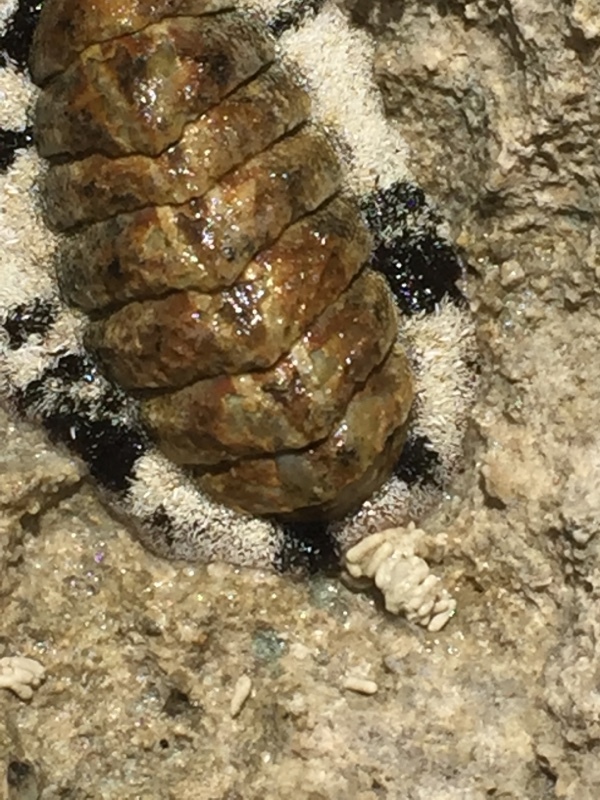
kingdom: Animalia
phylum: Mollusca
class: Polyplacophora
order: Chitonida
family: Chitonidae
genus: Acanthopleura
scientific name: Acanthopleura granulata
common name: West indian fuzzy chiton
